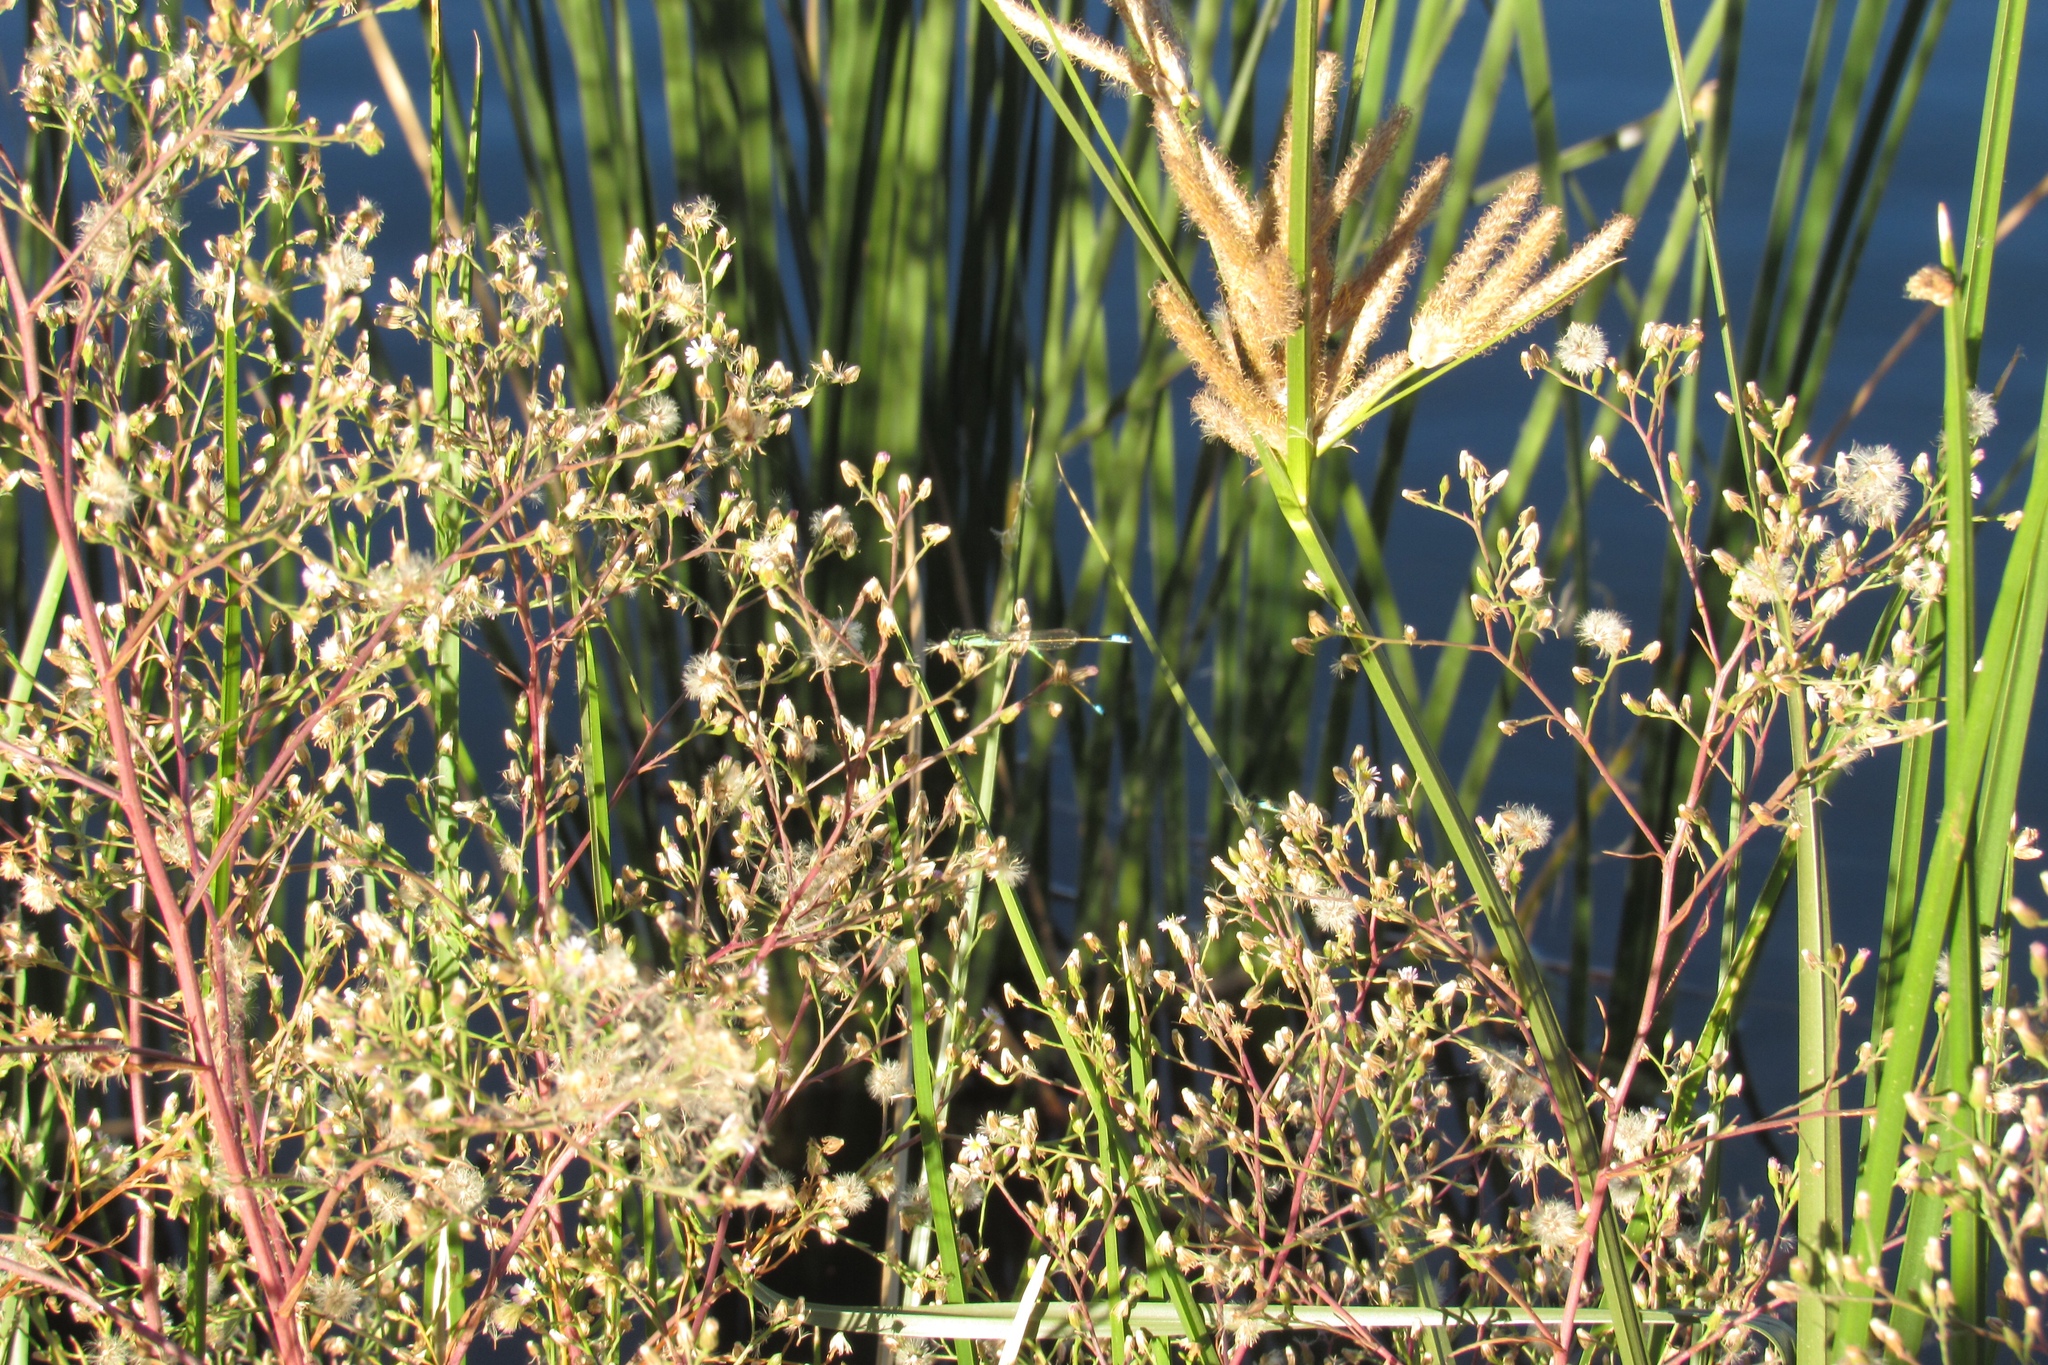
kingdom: Animalia
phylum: Arthropoda
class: Insecta
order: Odonata
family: Coenagrionidae
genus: Ischnura
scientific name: Ischnura ramburii
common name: Rambur's forktail
